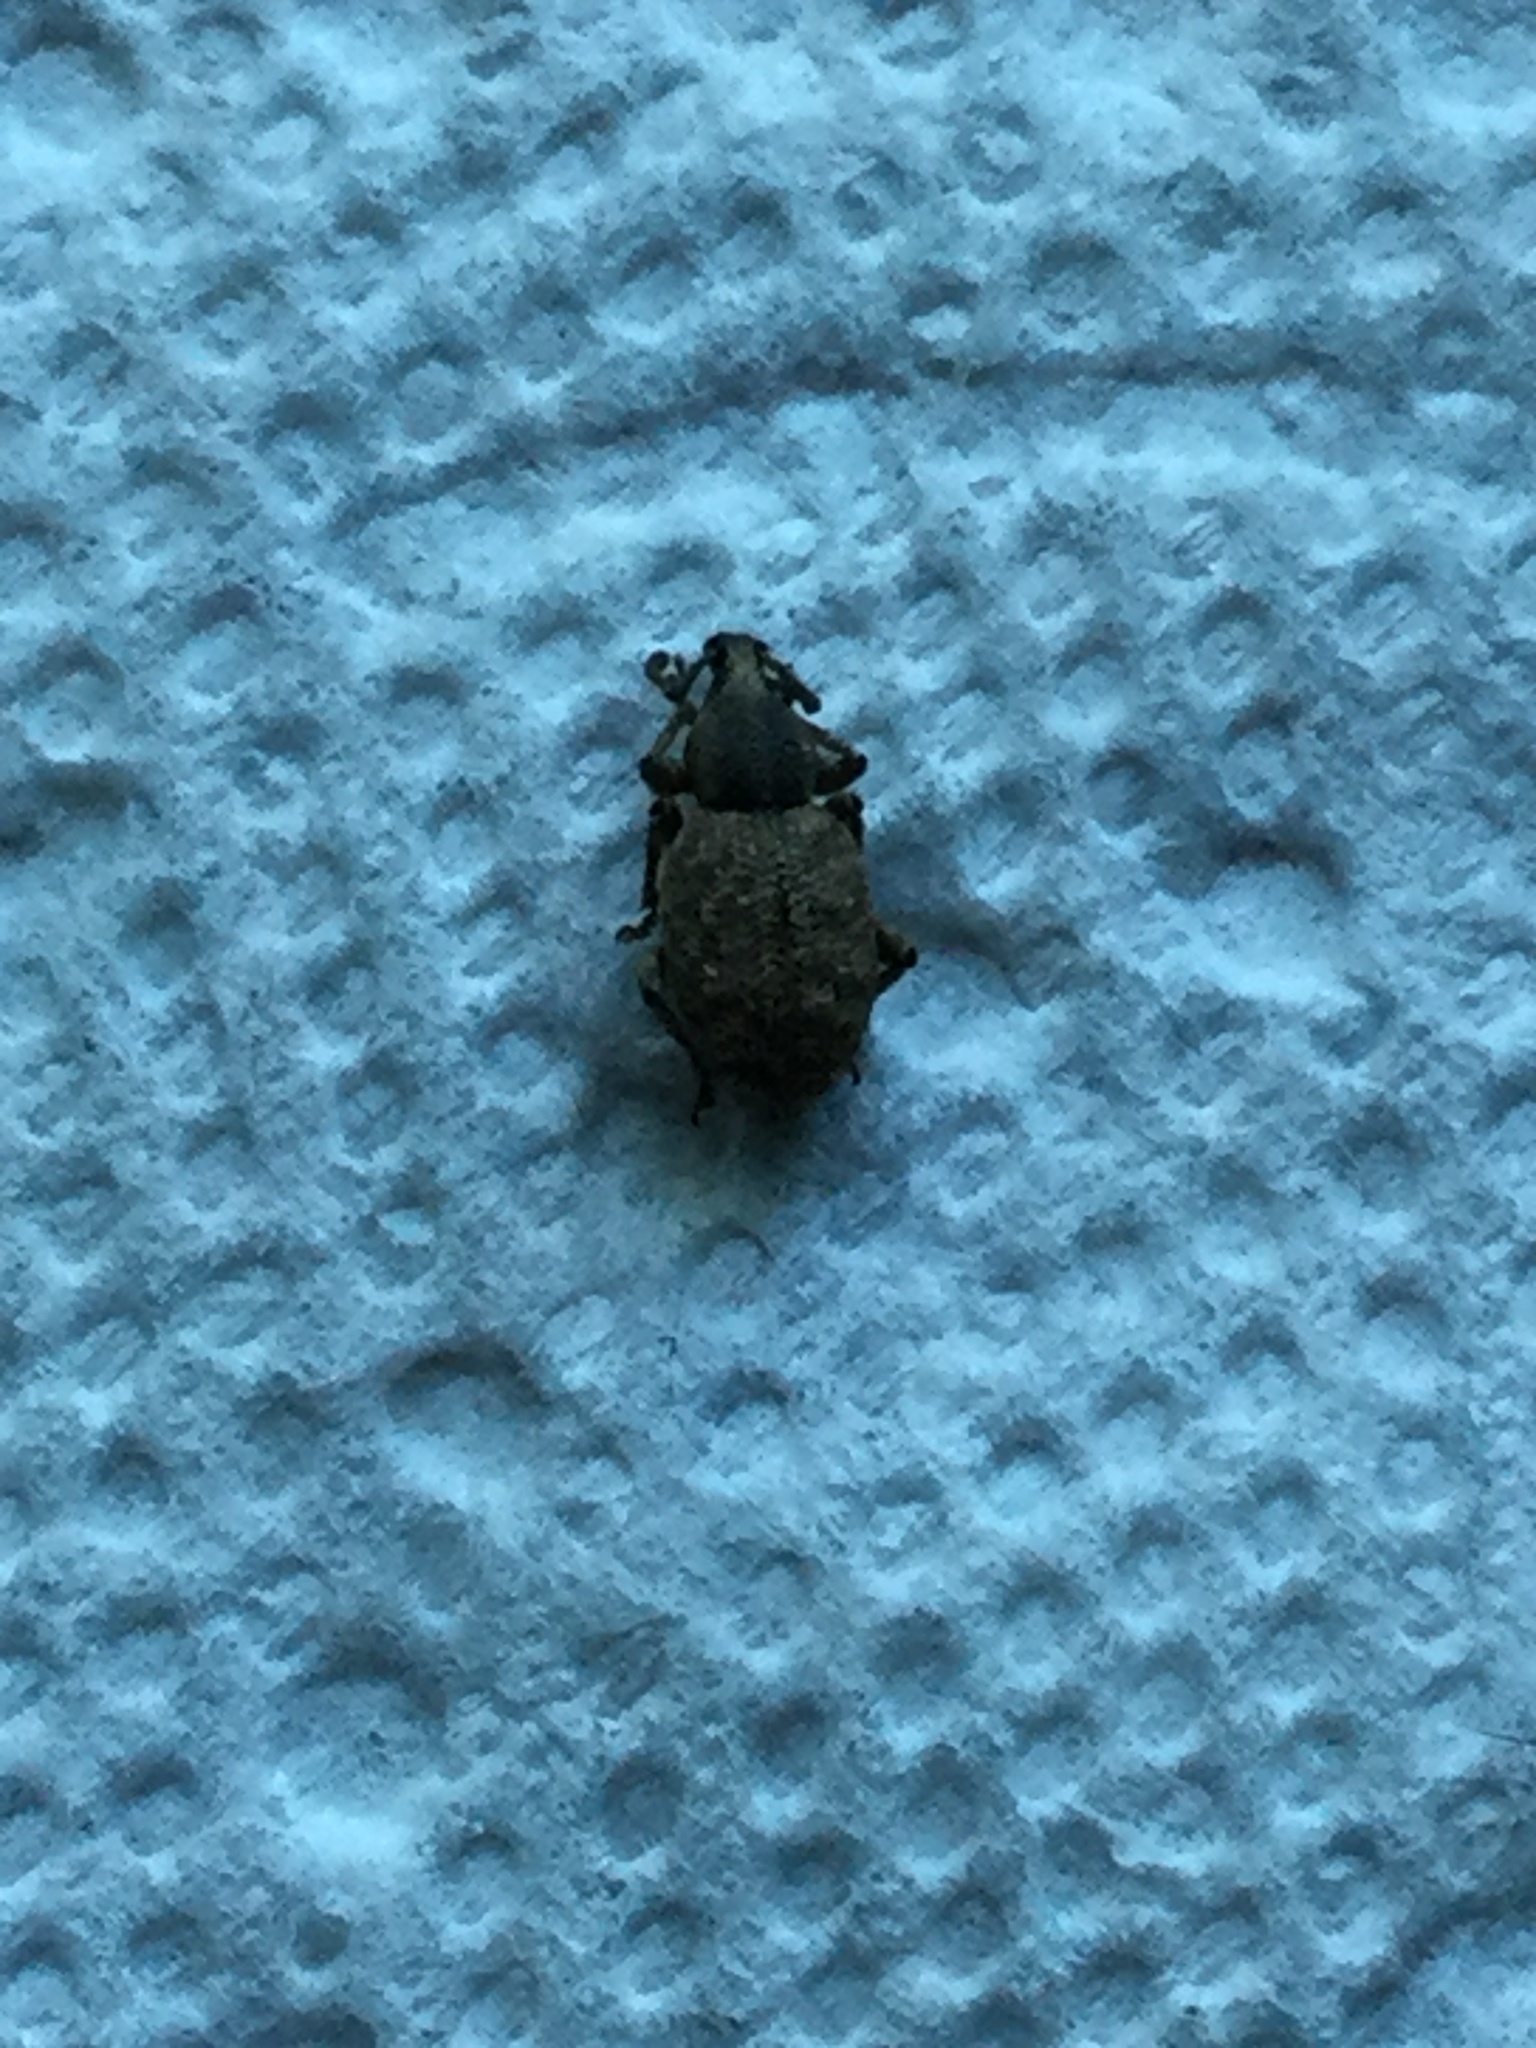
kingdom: Animalia
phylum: Arthropoda
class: Insecta
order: Coleoptera
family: Curculionidae
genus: Otiorhynchus
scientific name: Otiorhynchus singularis
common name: Clay-coloured weevil
